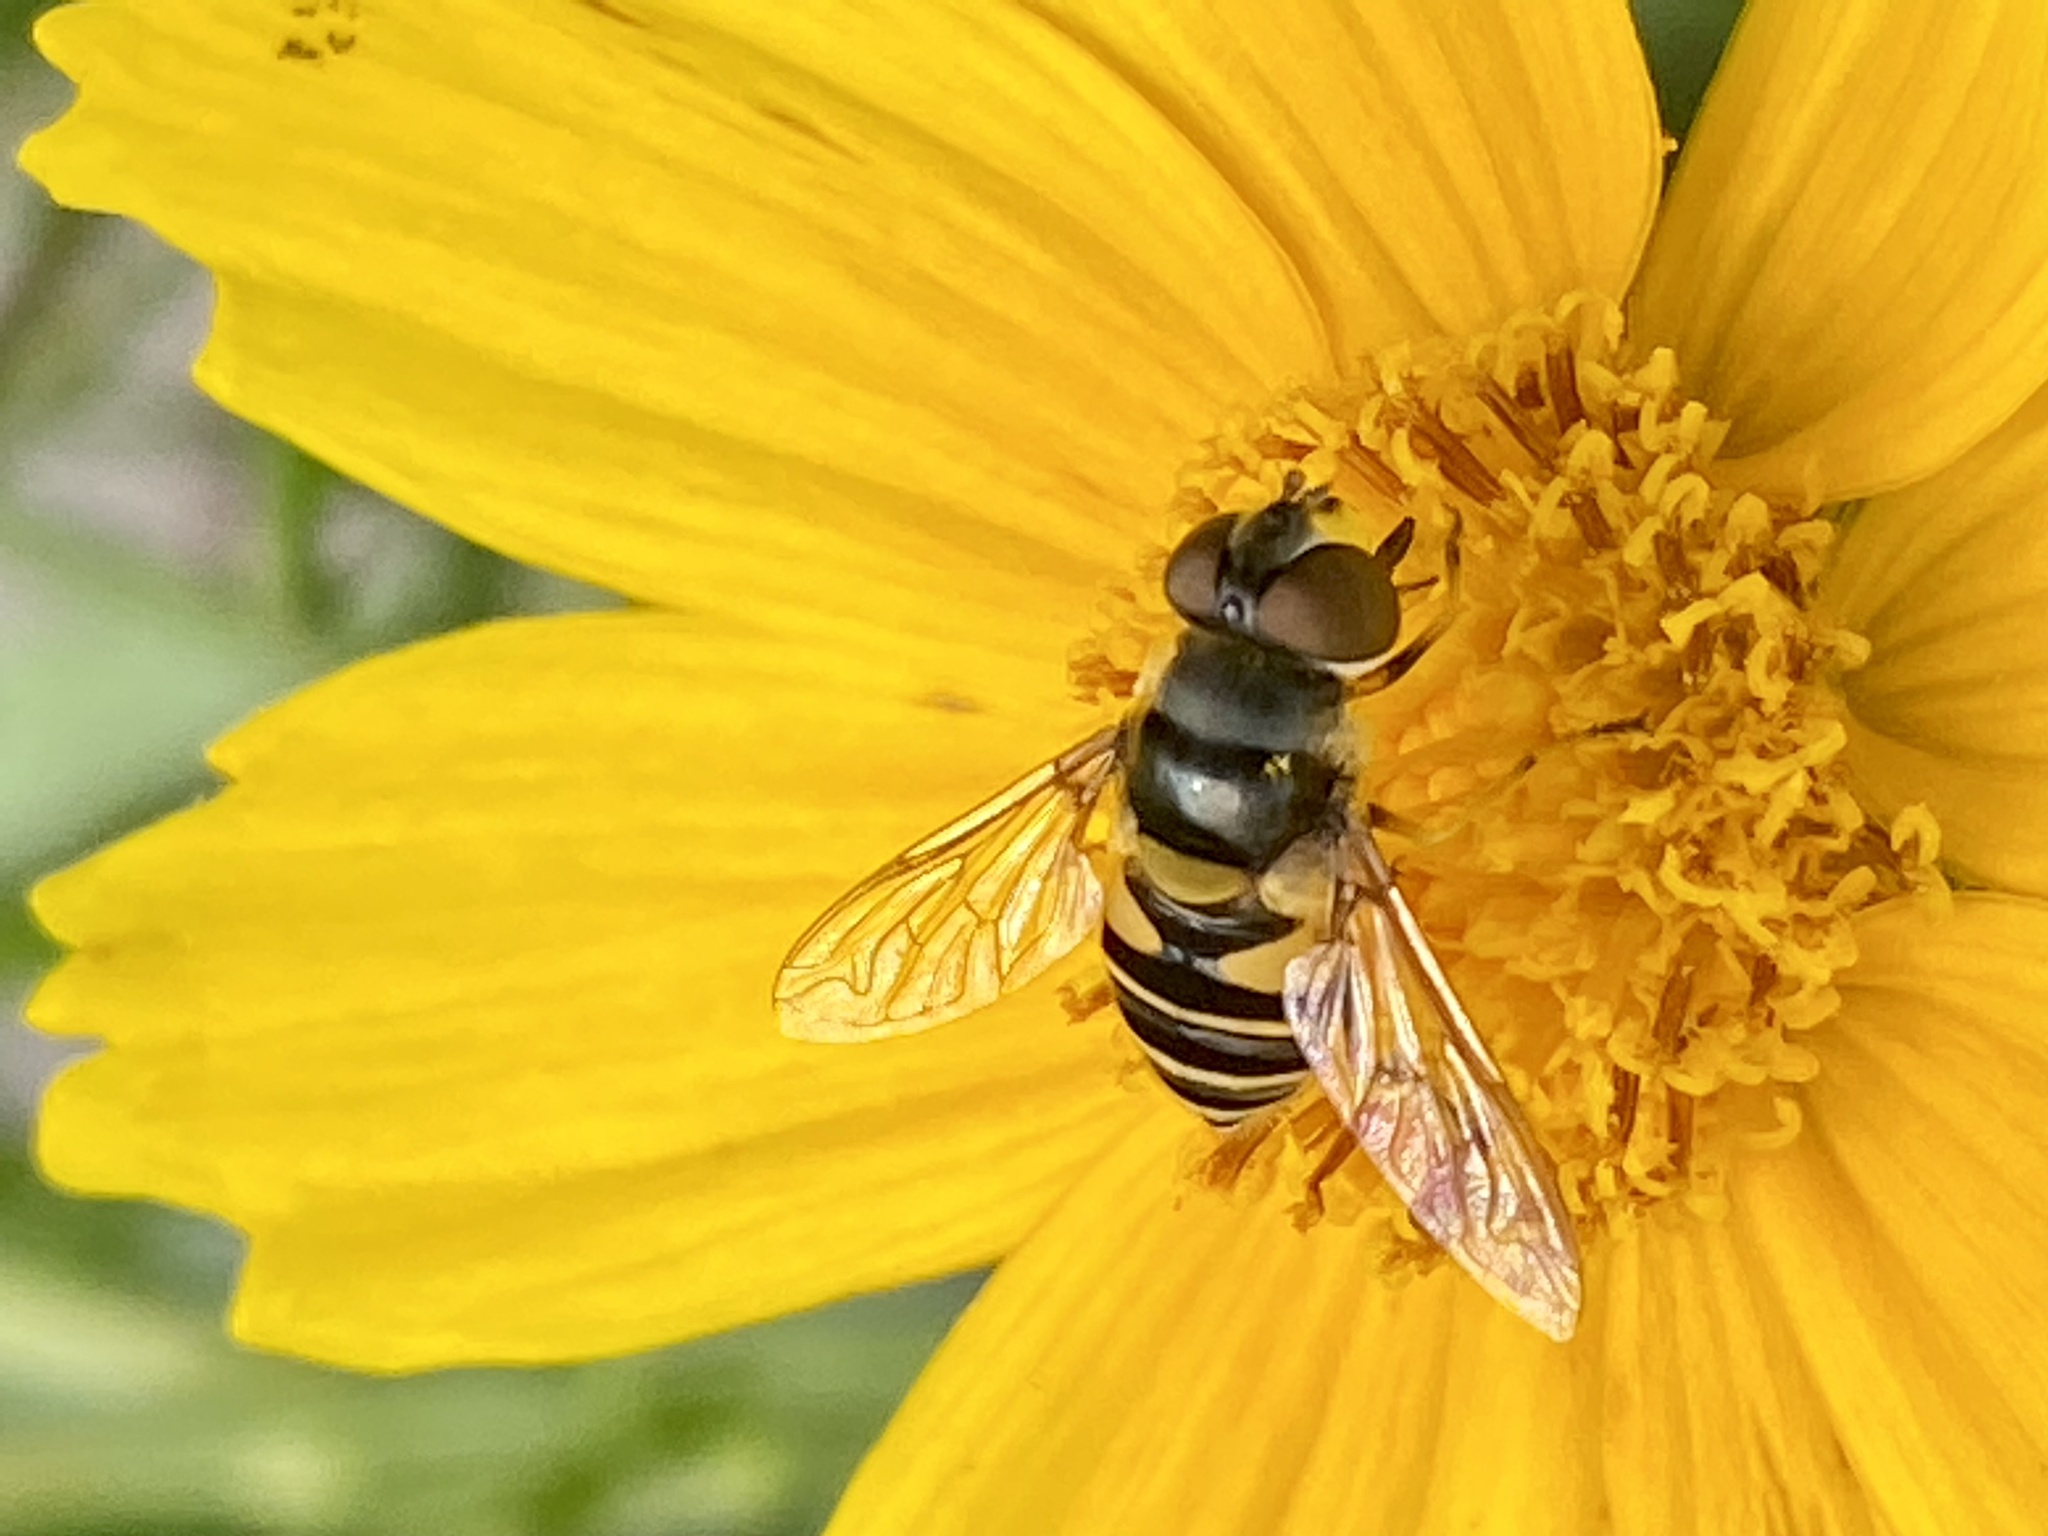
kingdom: Animalia
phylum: Arthropoda
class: Insecta
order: Diptera
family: Syrphidae
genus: Eristalis
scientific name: Eristalis transversa
